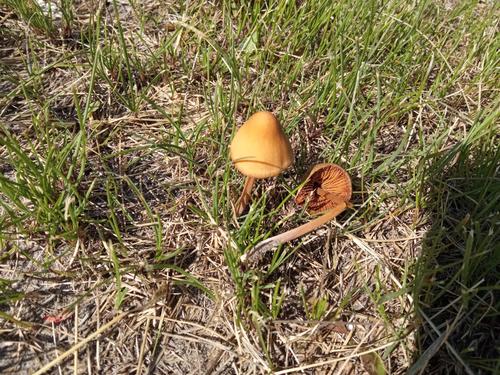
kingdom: Fungi
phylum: Basidiomycota
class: Agaricomycetes
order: Agaricales
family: Bolbitiaceae
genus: Conocybe
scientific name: Conocybe semiglobata
